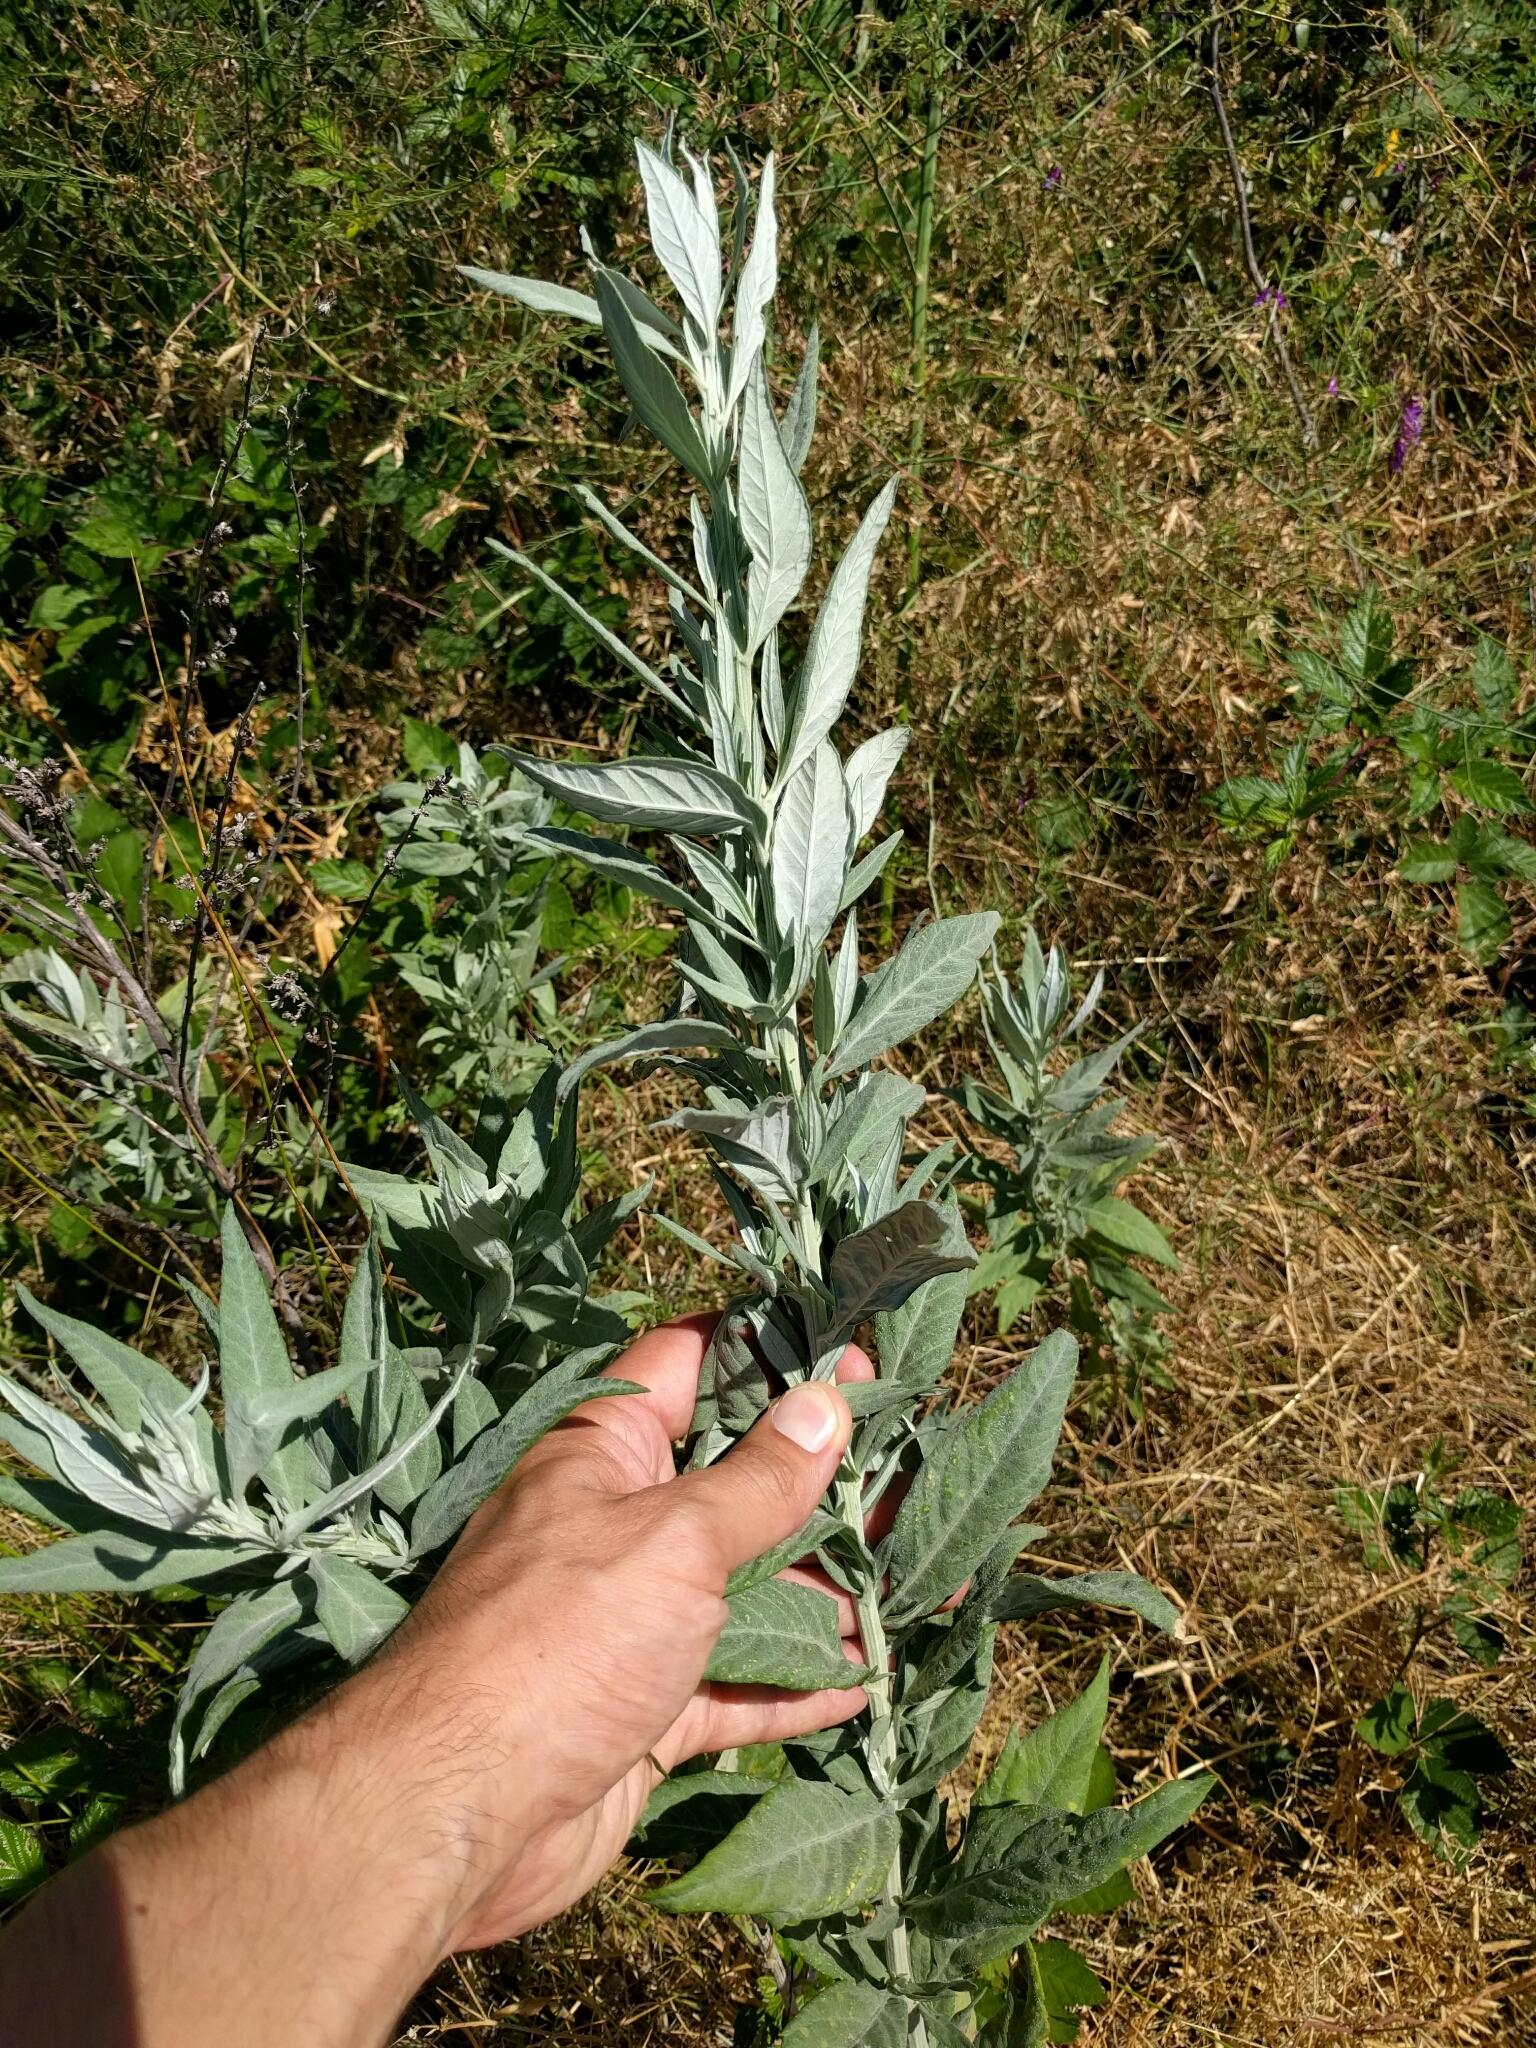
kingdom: Plantae
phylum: Tracheophyta
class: Magnoliopsida
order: Asterales
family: Asteraceae
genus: Artemisia
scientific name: Artemisia douglasiana
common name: Northwest mugwort
